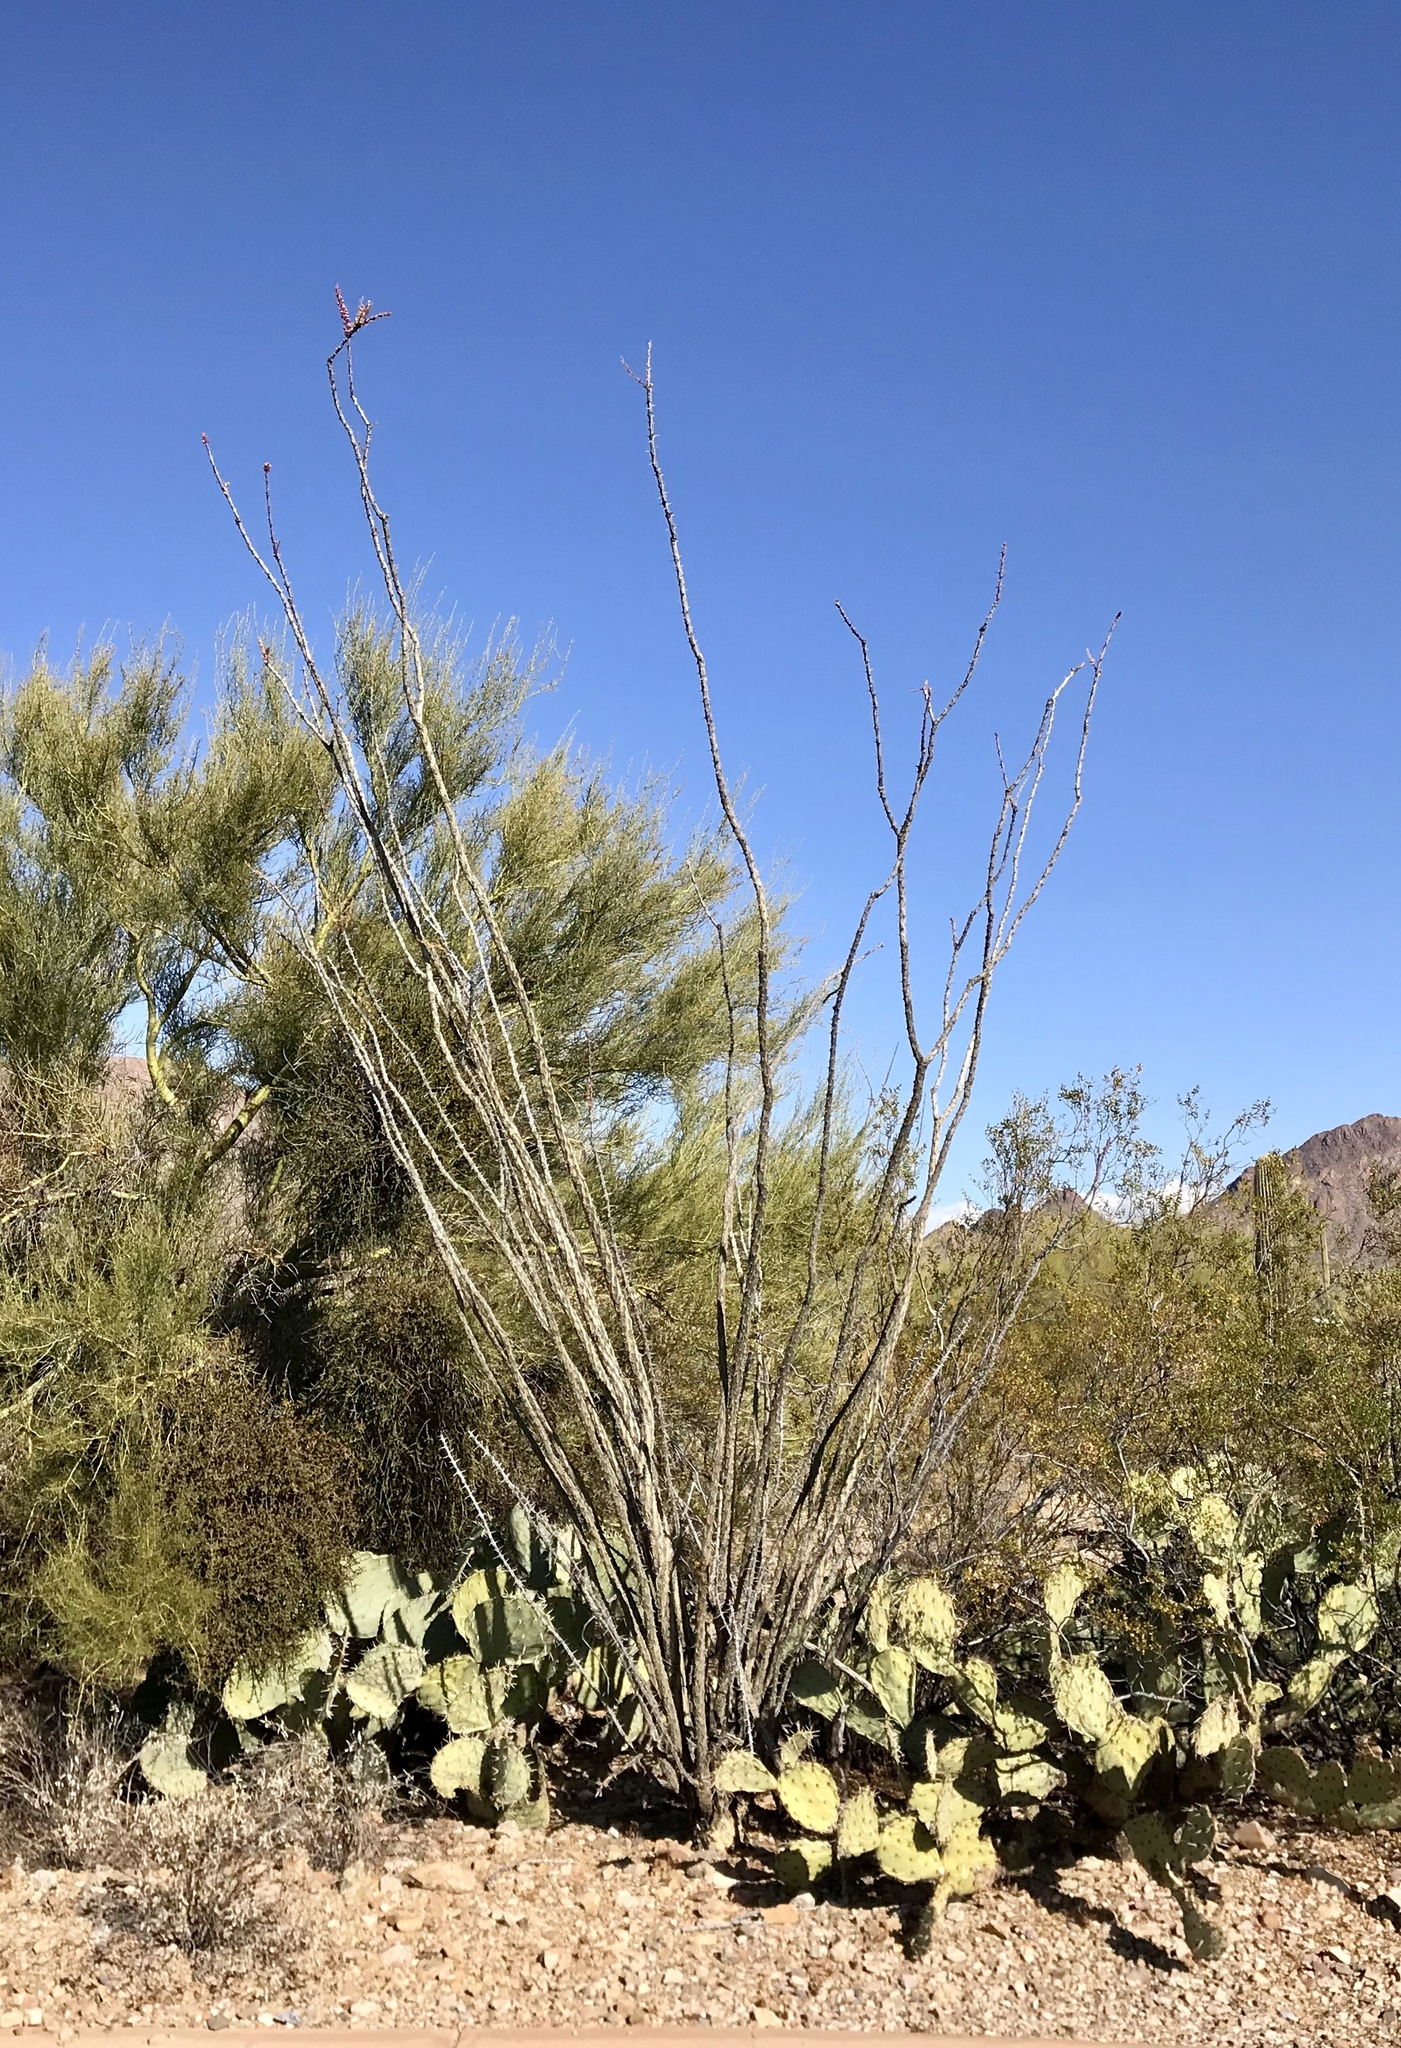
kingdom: Plantae
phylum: Tracheophyta
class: Magnoliopsida
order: Ericales
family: Fouquieriaceae
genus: Fouquieria
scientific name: Fouquieria splendens
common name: Vine-cactus
